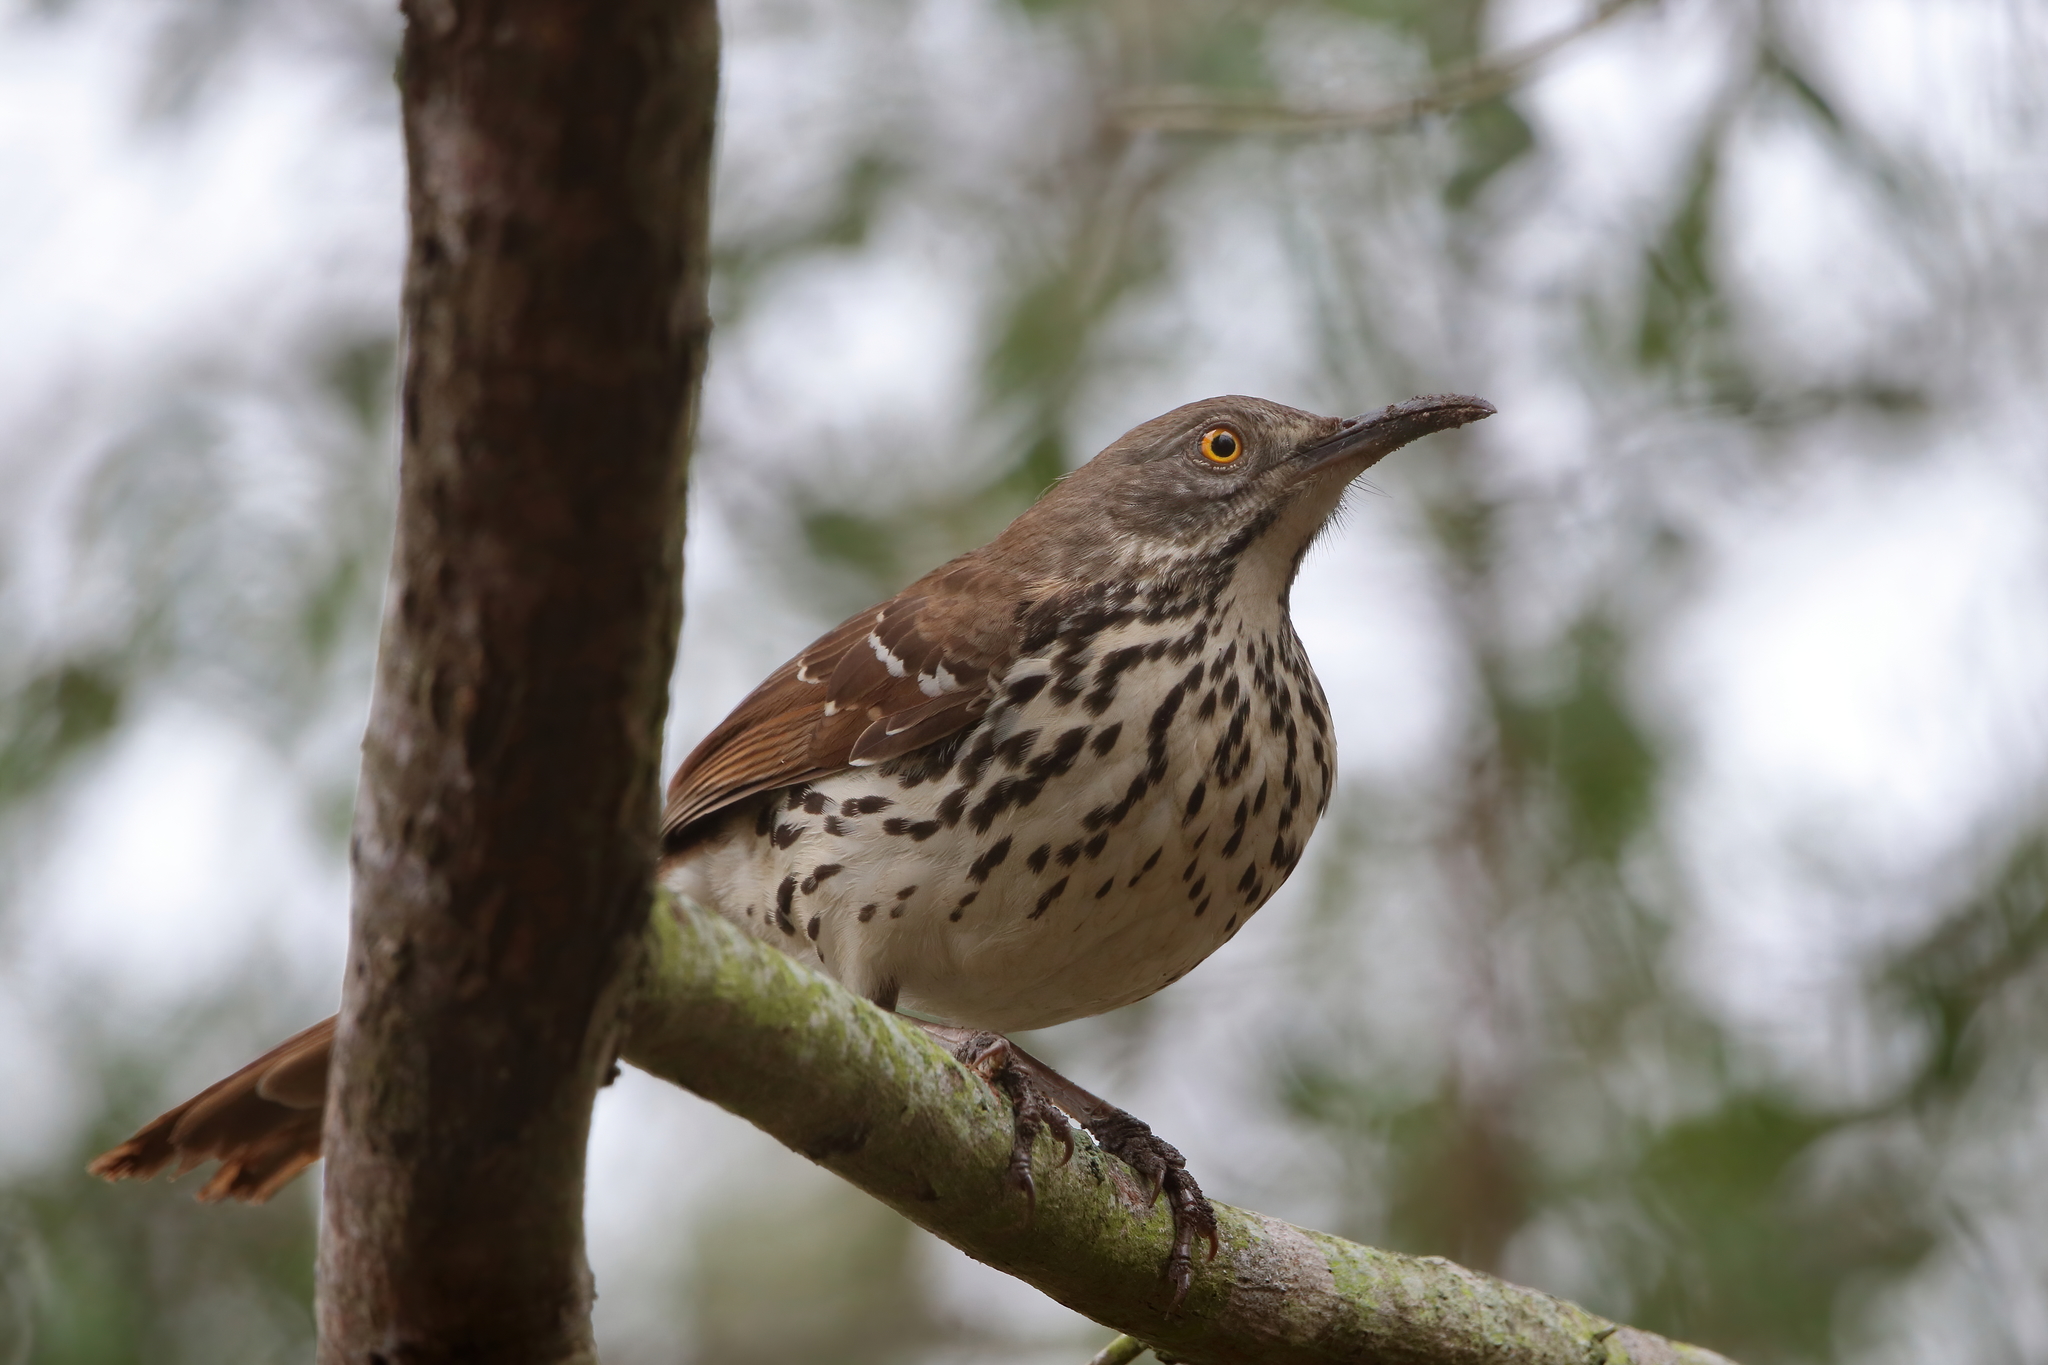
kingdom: Animalia
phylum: Chordata
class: Aves
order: Passeriformes
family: Mimidae
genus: Toxostoma
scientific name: Toxostoma longirostre
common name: Long-billed thrasher
